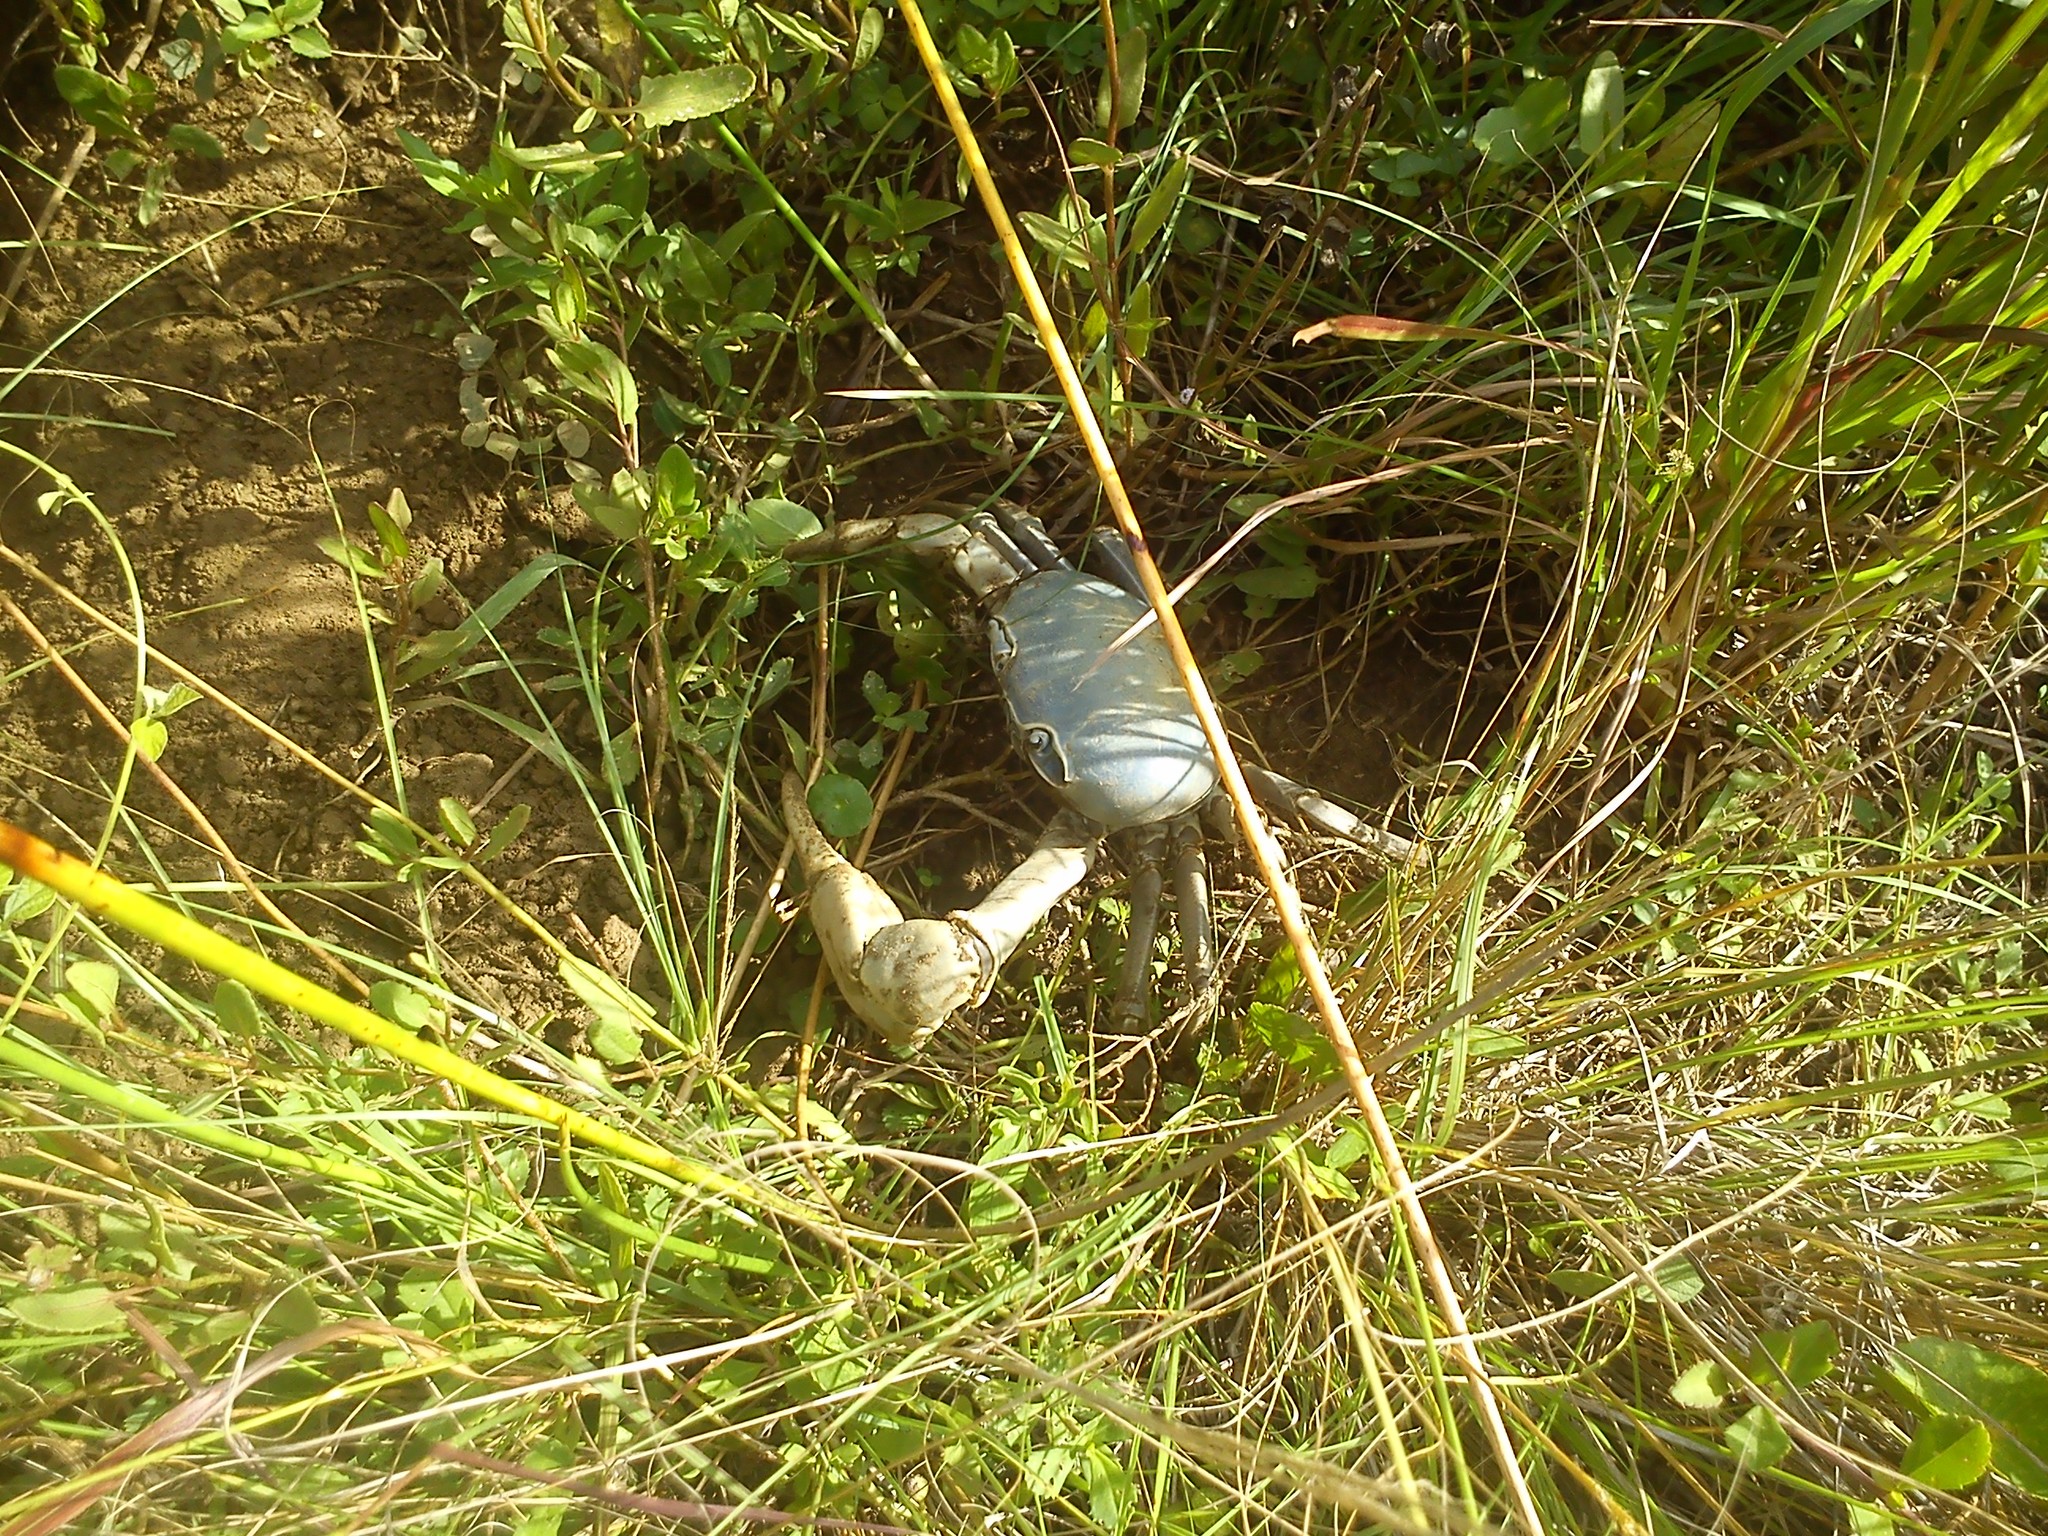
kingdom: Animalia
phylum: Arthropoda
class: Malacostraca
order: Decapoda
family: Gecarcinidae
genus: Cardisoma
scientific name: Cardisoma guanhumi
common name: Great land crab
